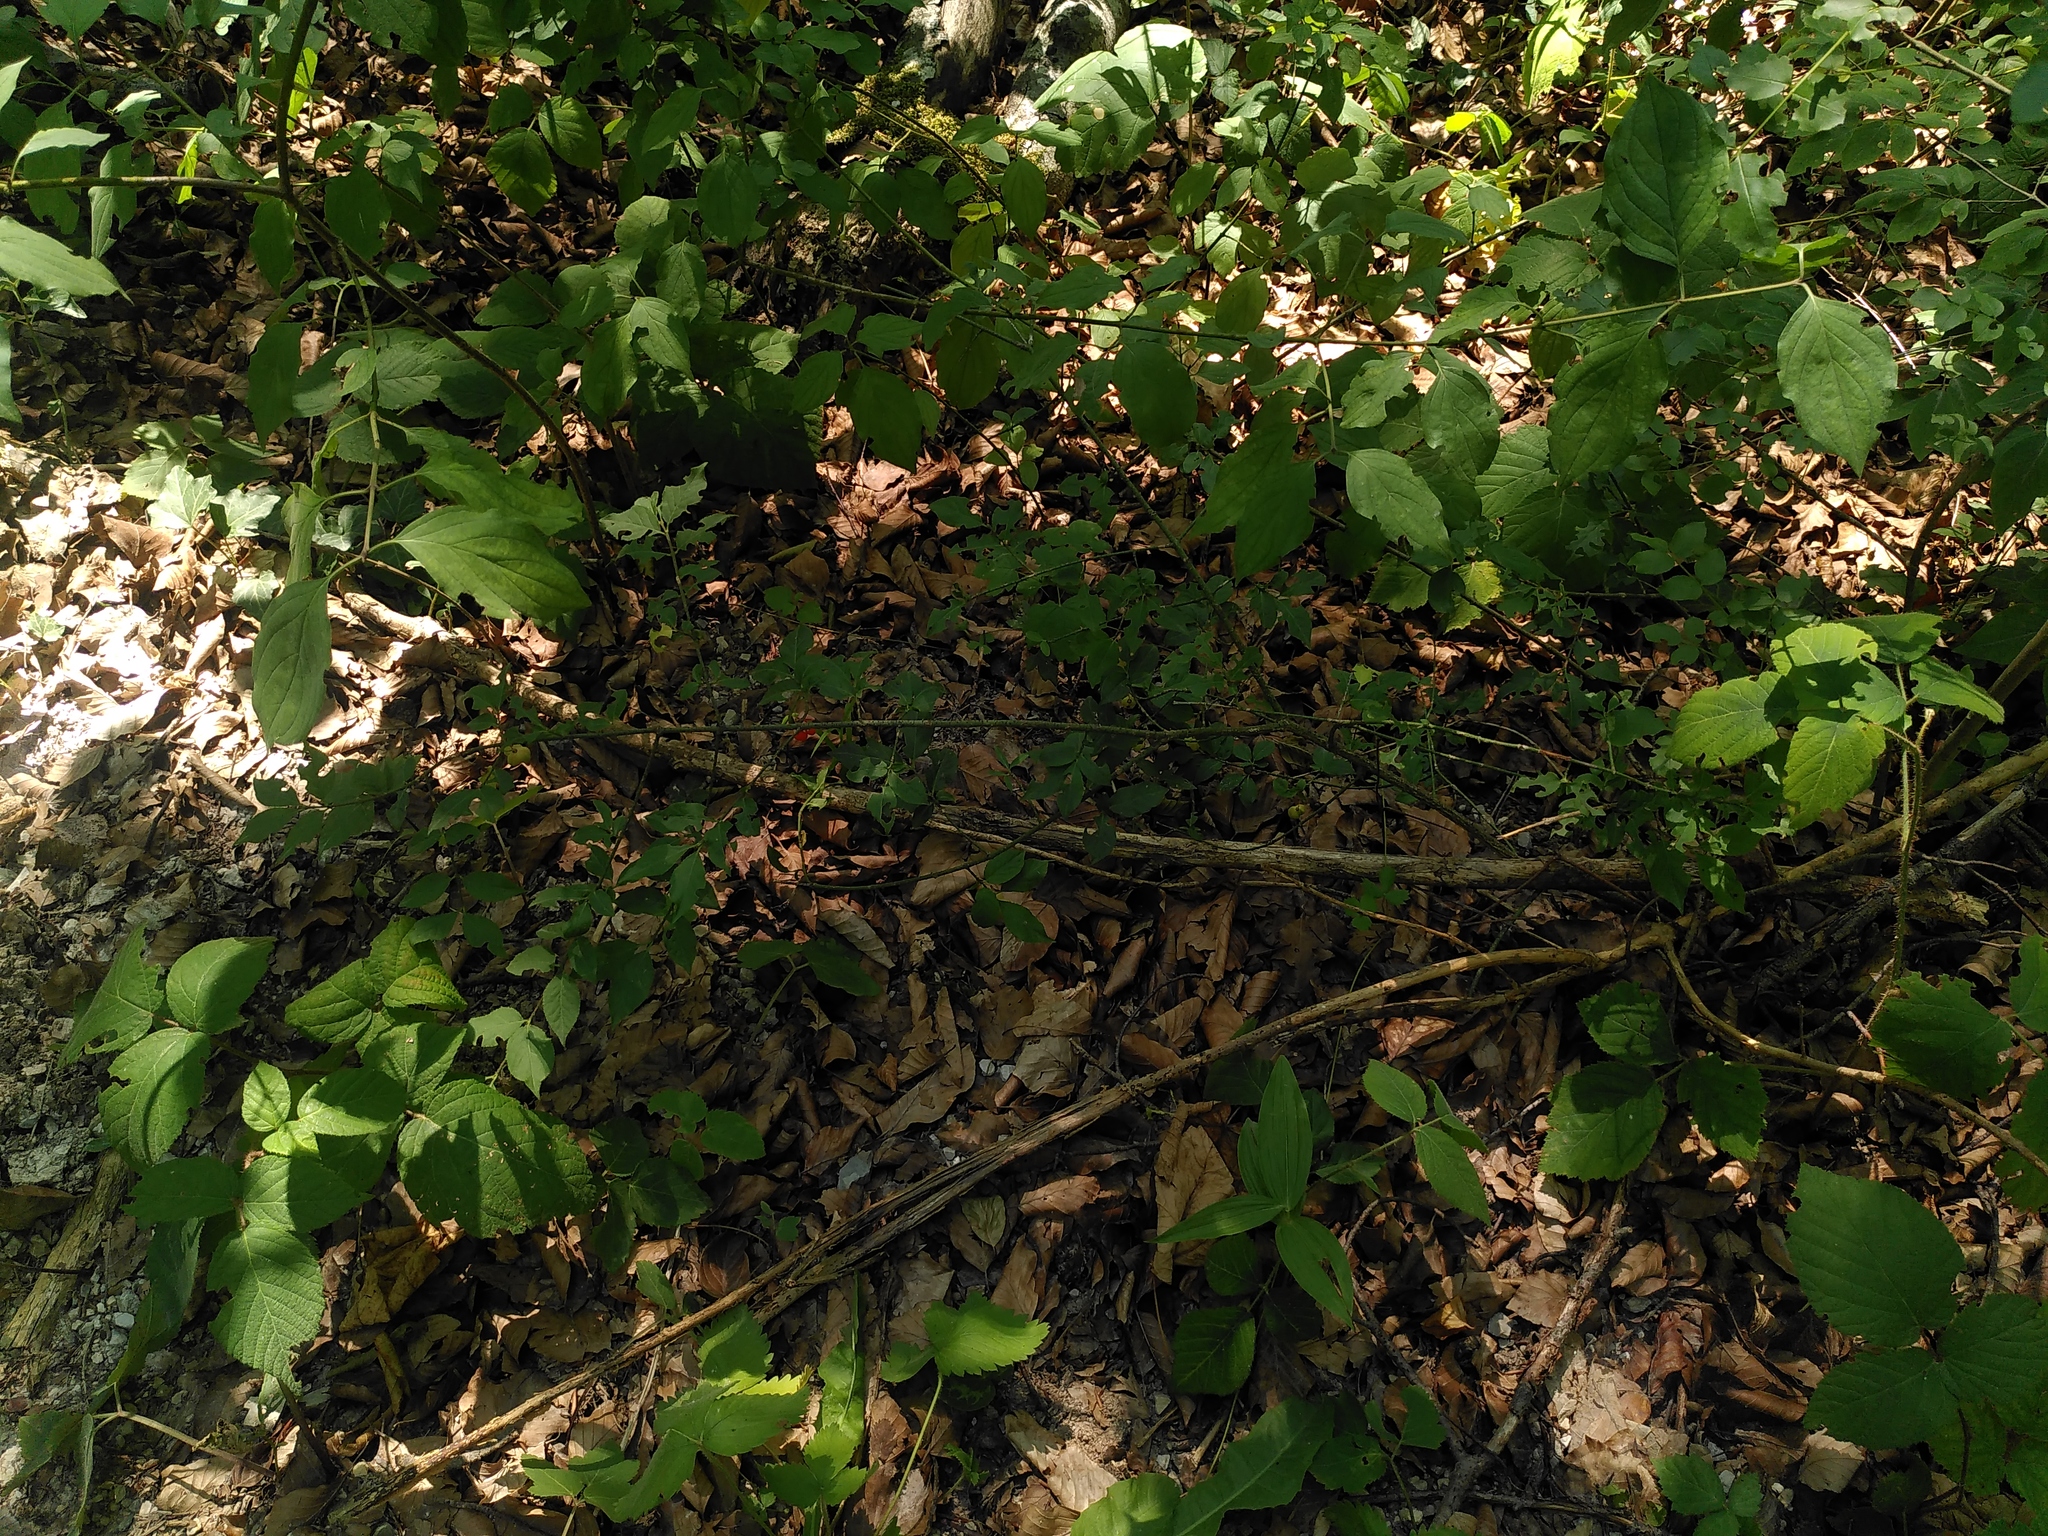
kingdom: Plantae
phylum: Tracheophyta
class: Magnoliopsida
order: Celastrales
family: Celastraceae
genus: Euonymus
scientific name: Euonymus verrucosus
